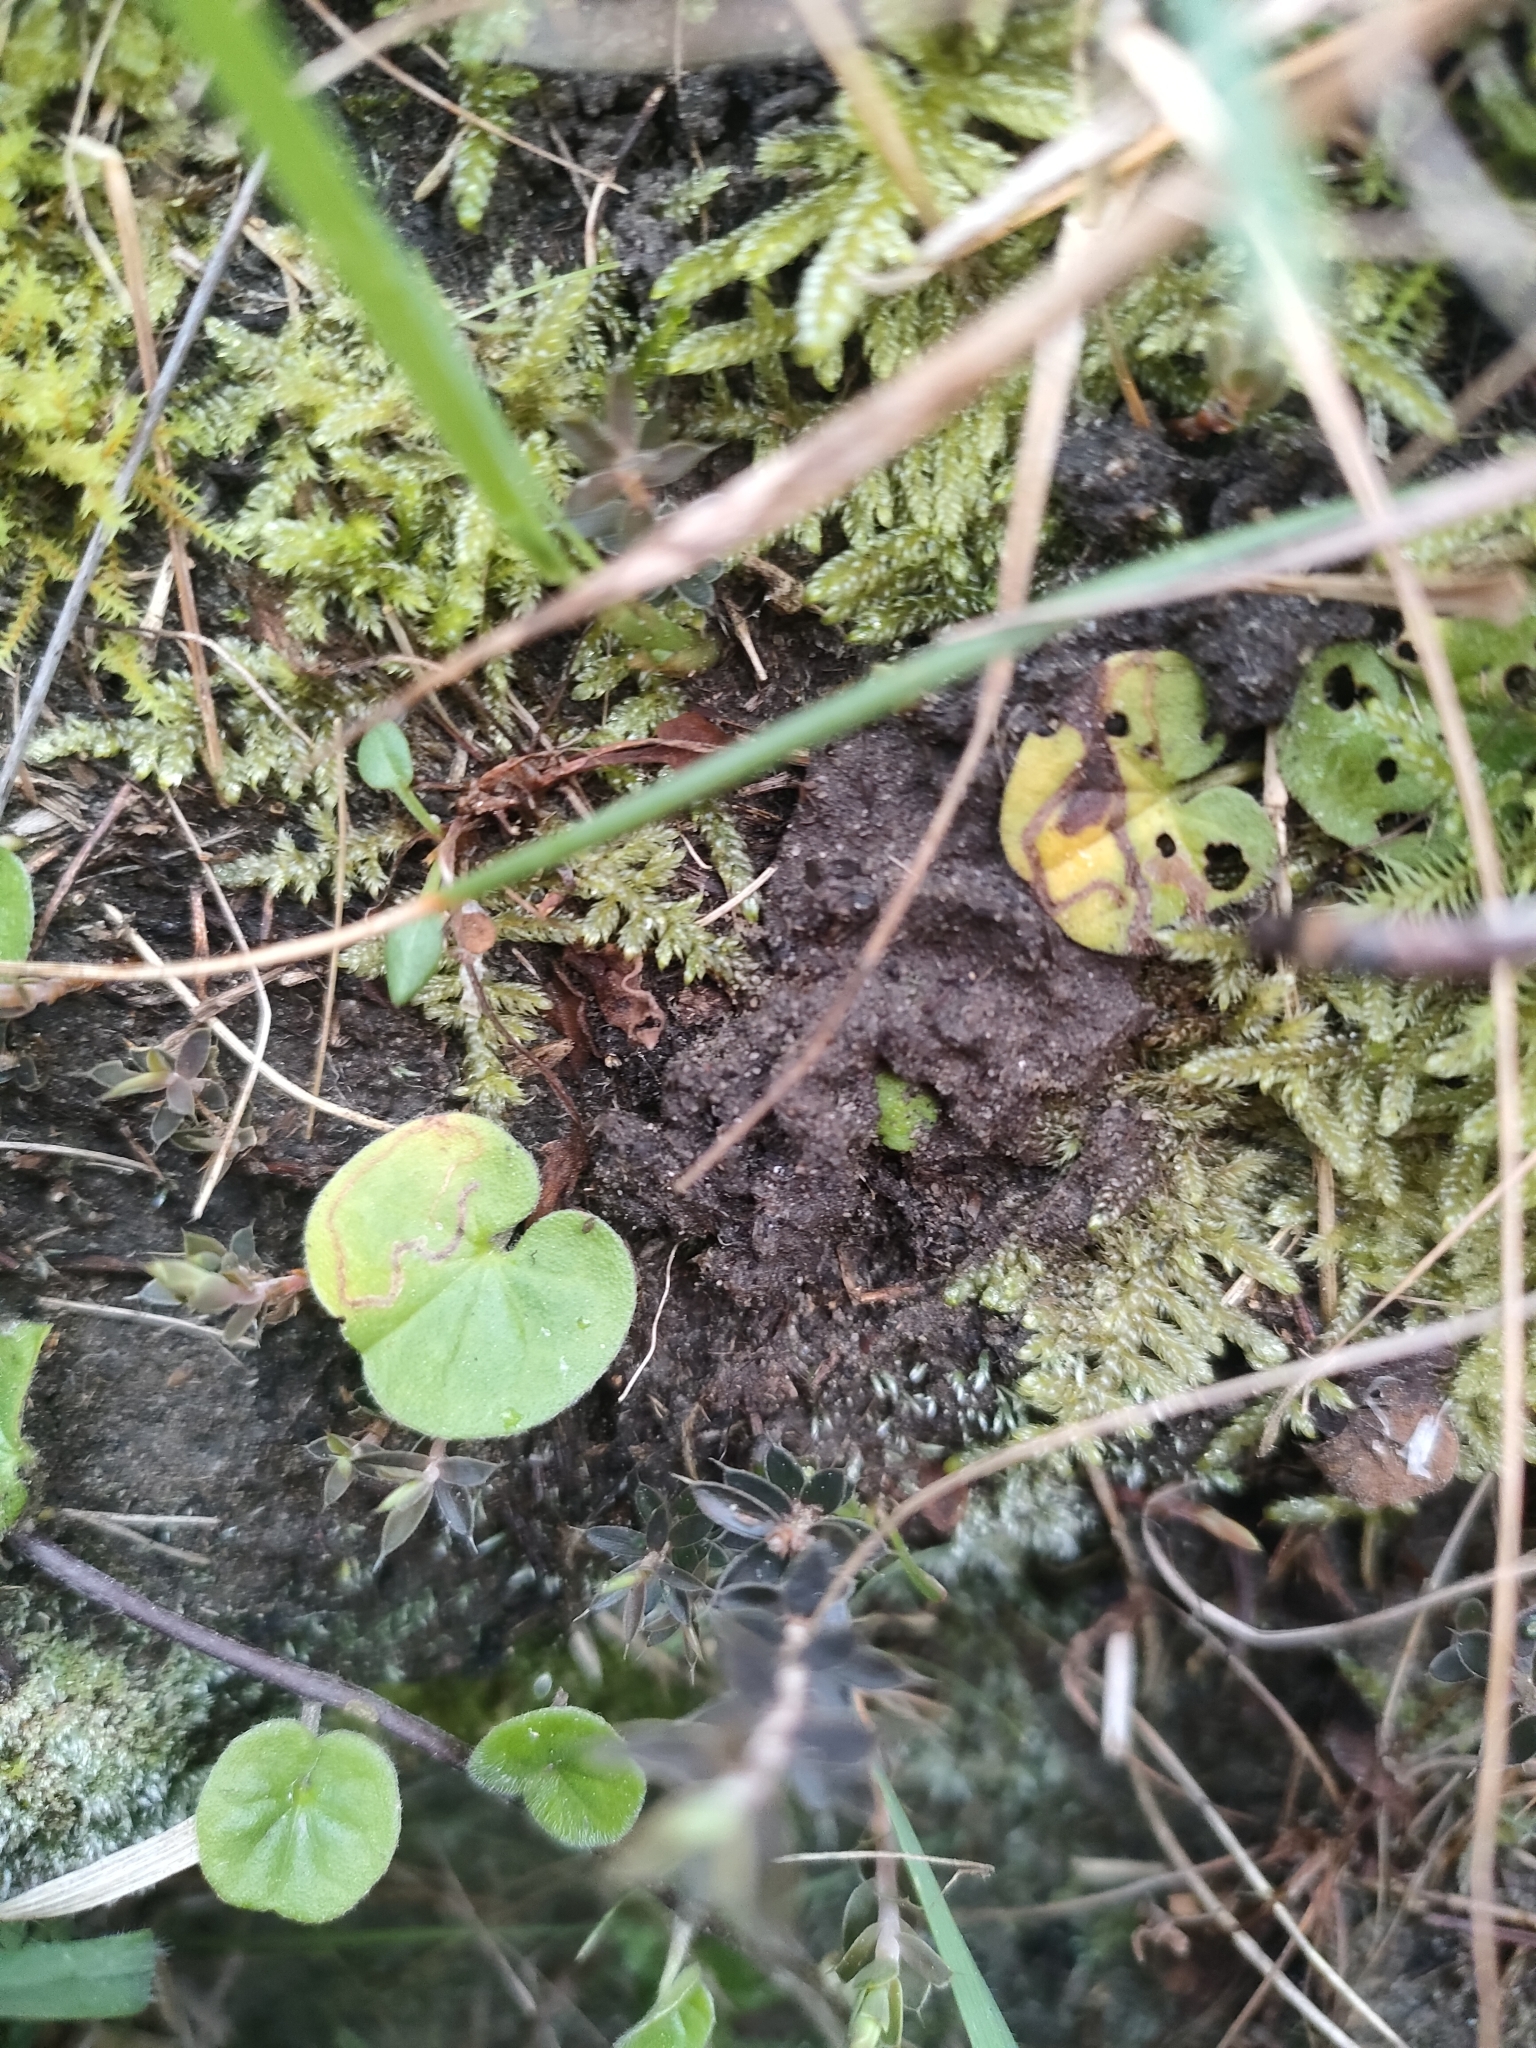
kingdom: Plantae
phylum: Tracheophyta
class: Magnoliopsida
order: Solanales
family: Convolvulaceae
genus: Dichondra
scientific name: Dichondra repens
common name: Kidneyweed
